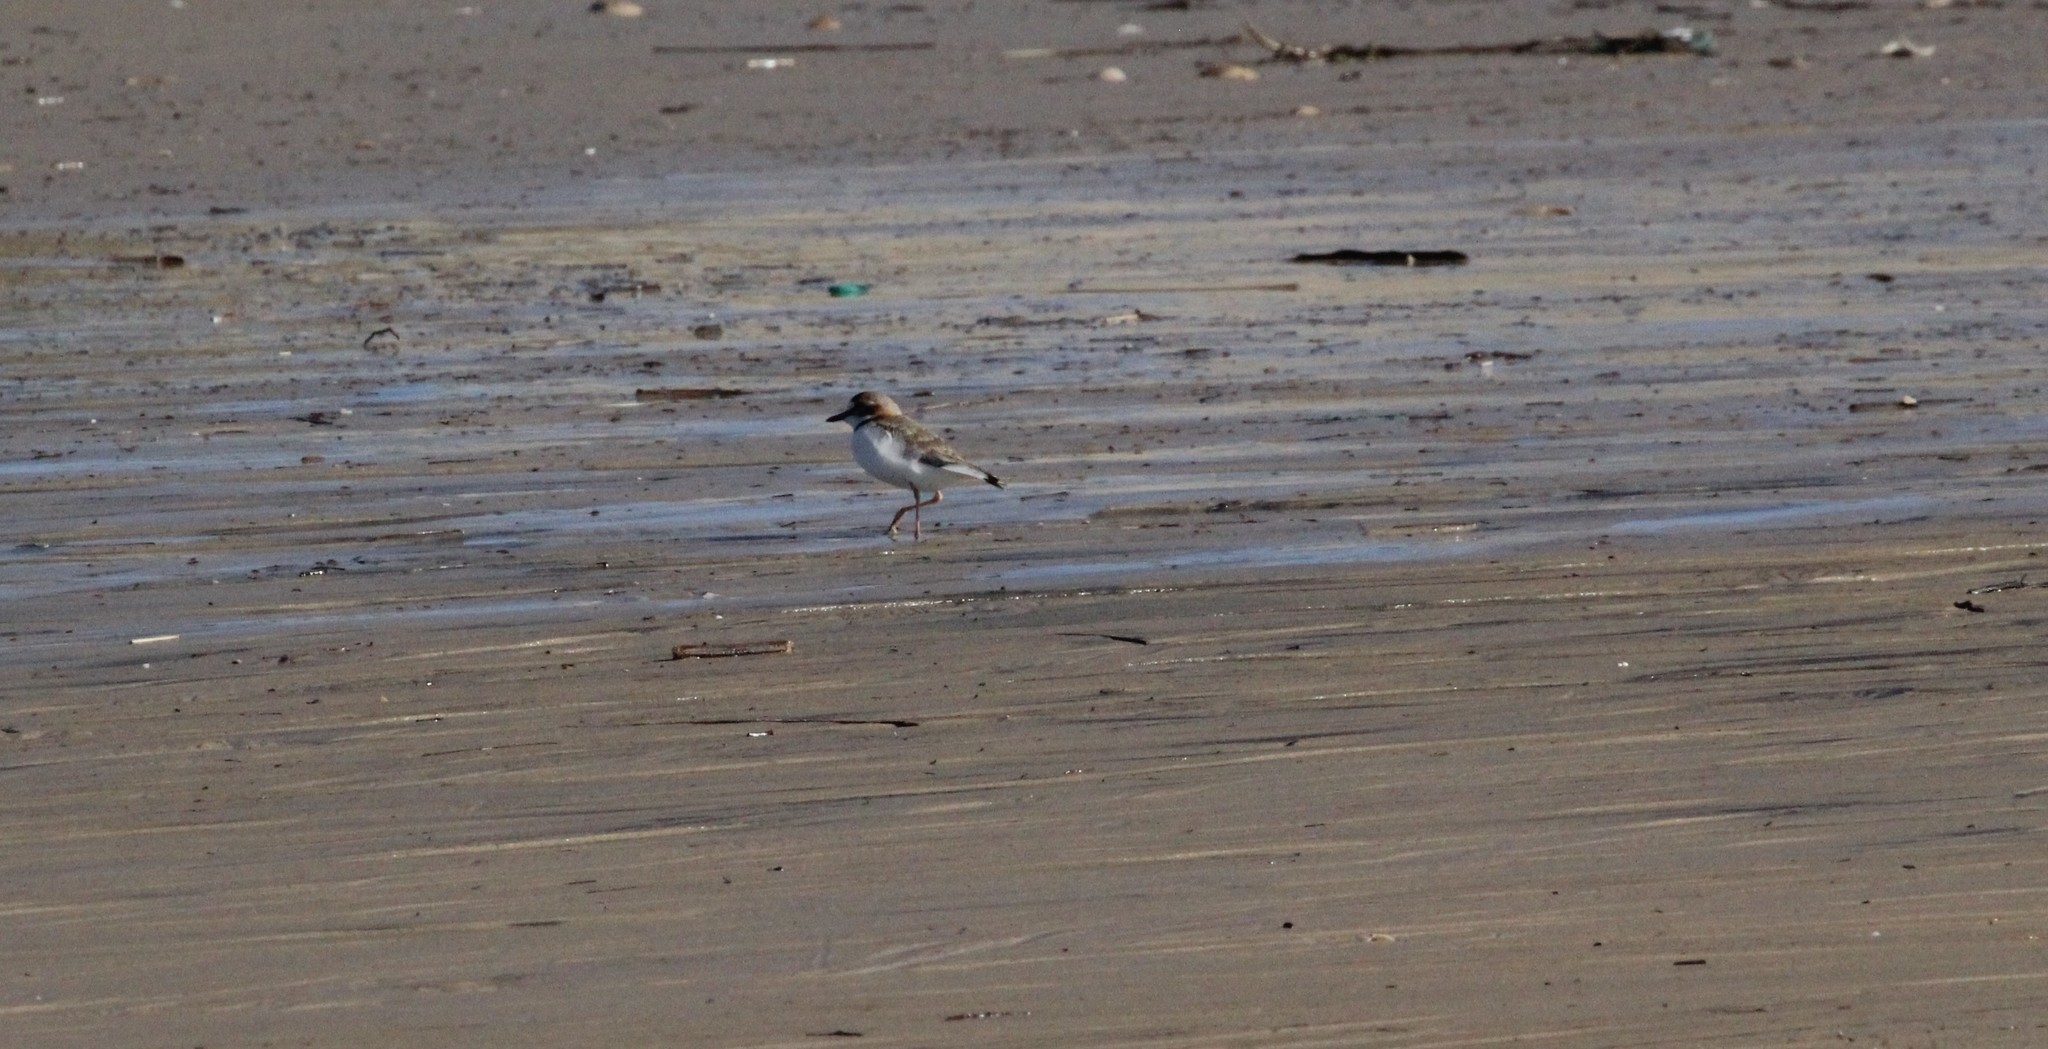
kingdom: Animalia
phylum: Chordata
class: Aves
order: Charadriiformes
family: Charadriidae
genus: Anarhynchus
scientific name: Anarhynchus
